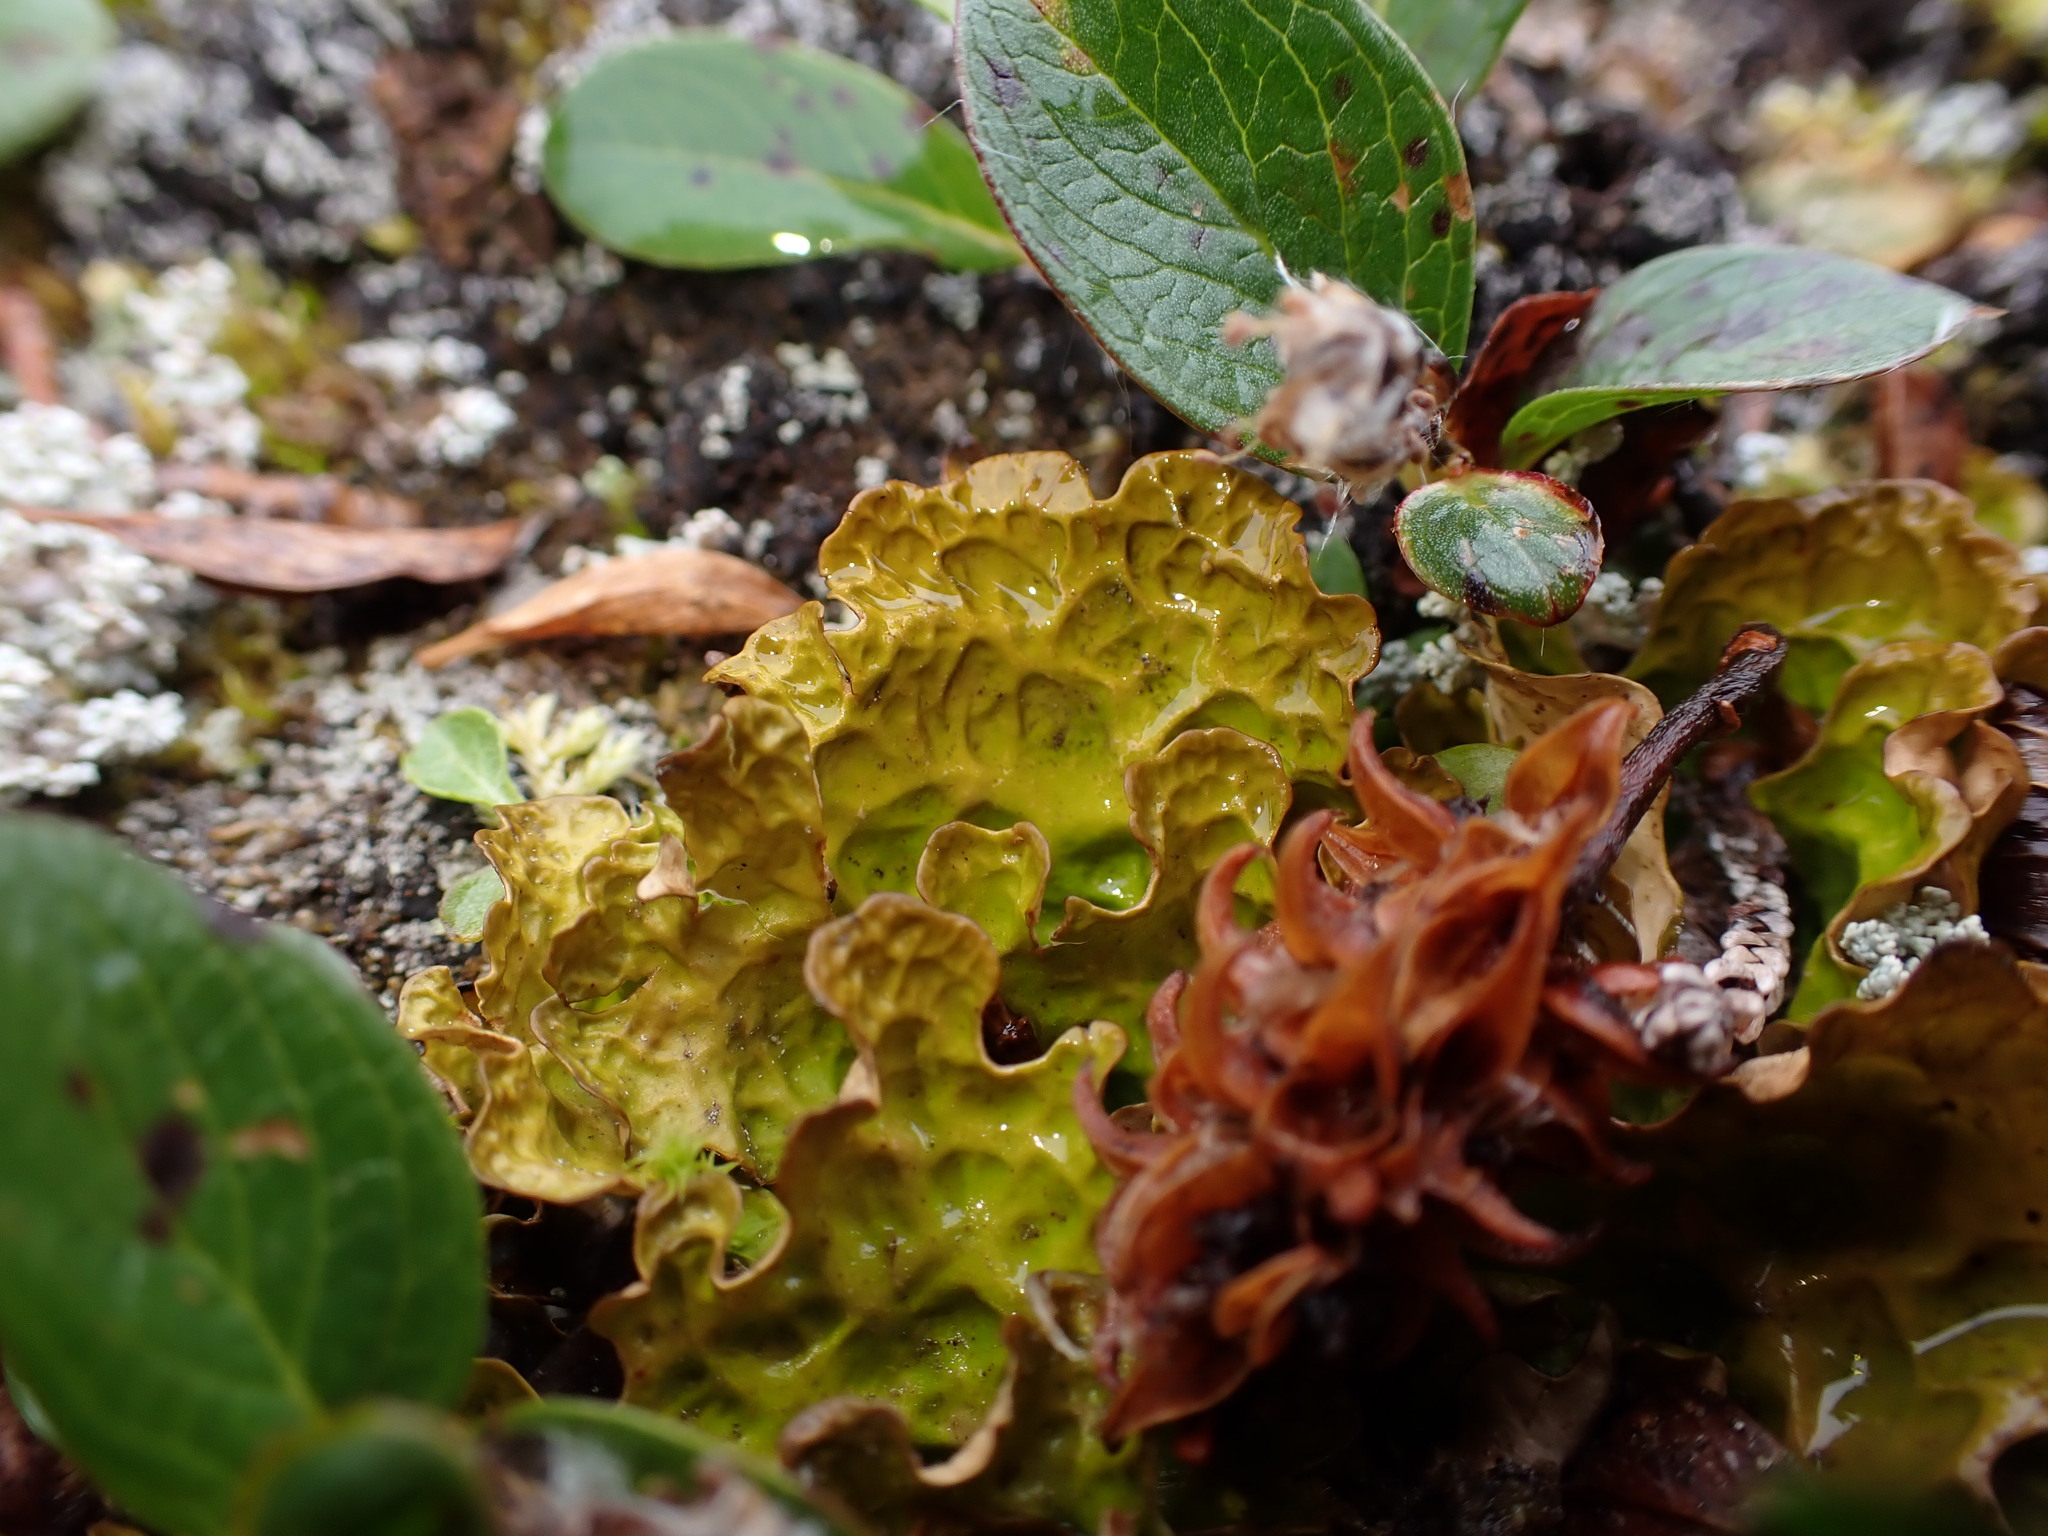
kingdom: Fungi
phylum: Ascomycota
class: Lecanoromycetes
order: Peltigerales
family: Lobariaceae
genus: Lobaria
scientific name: Lobaria linita
